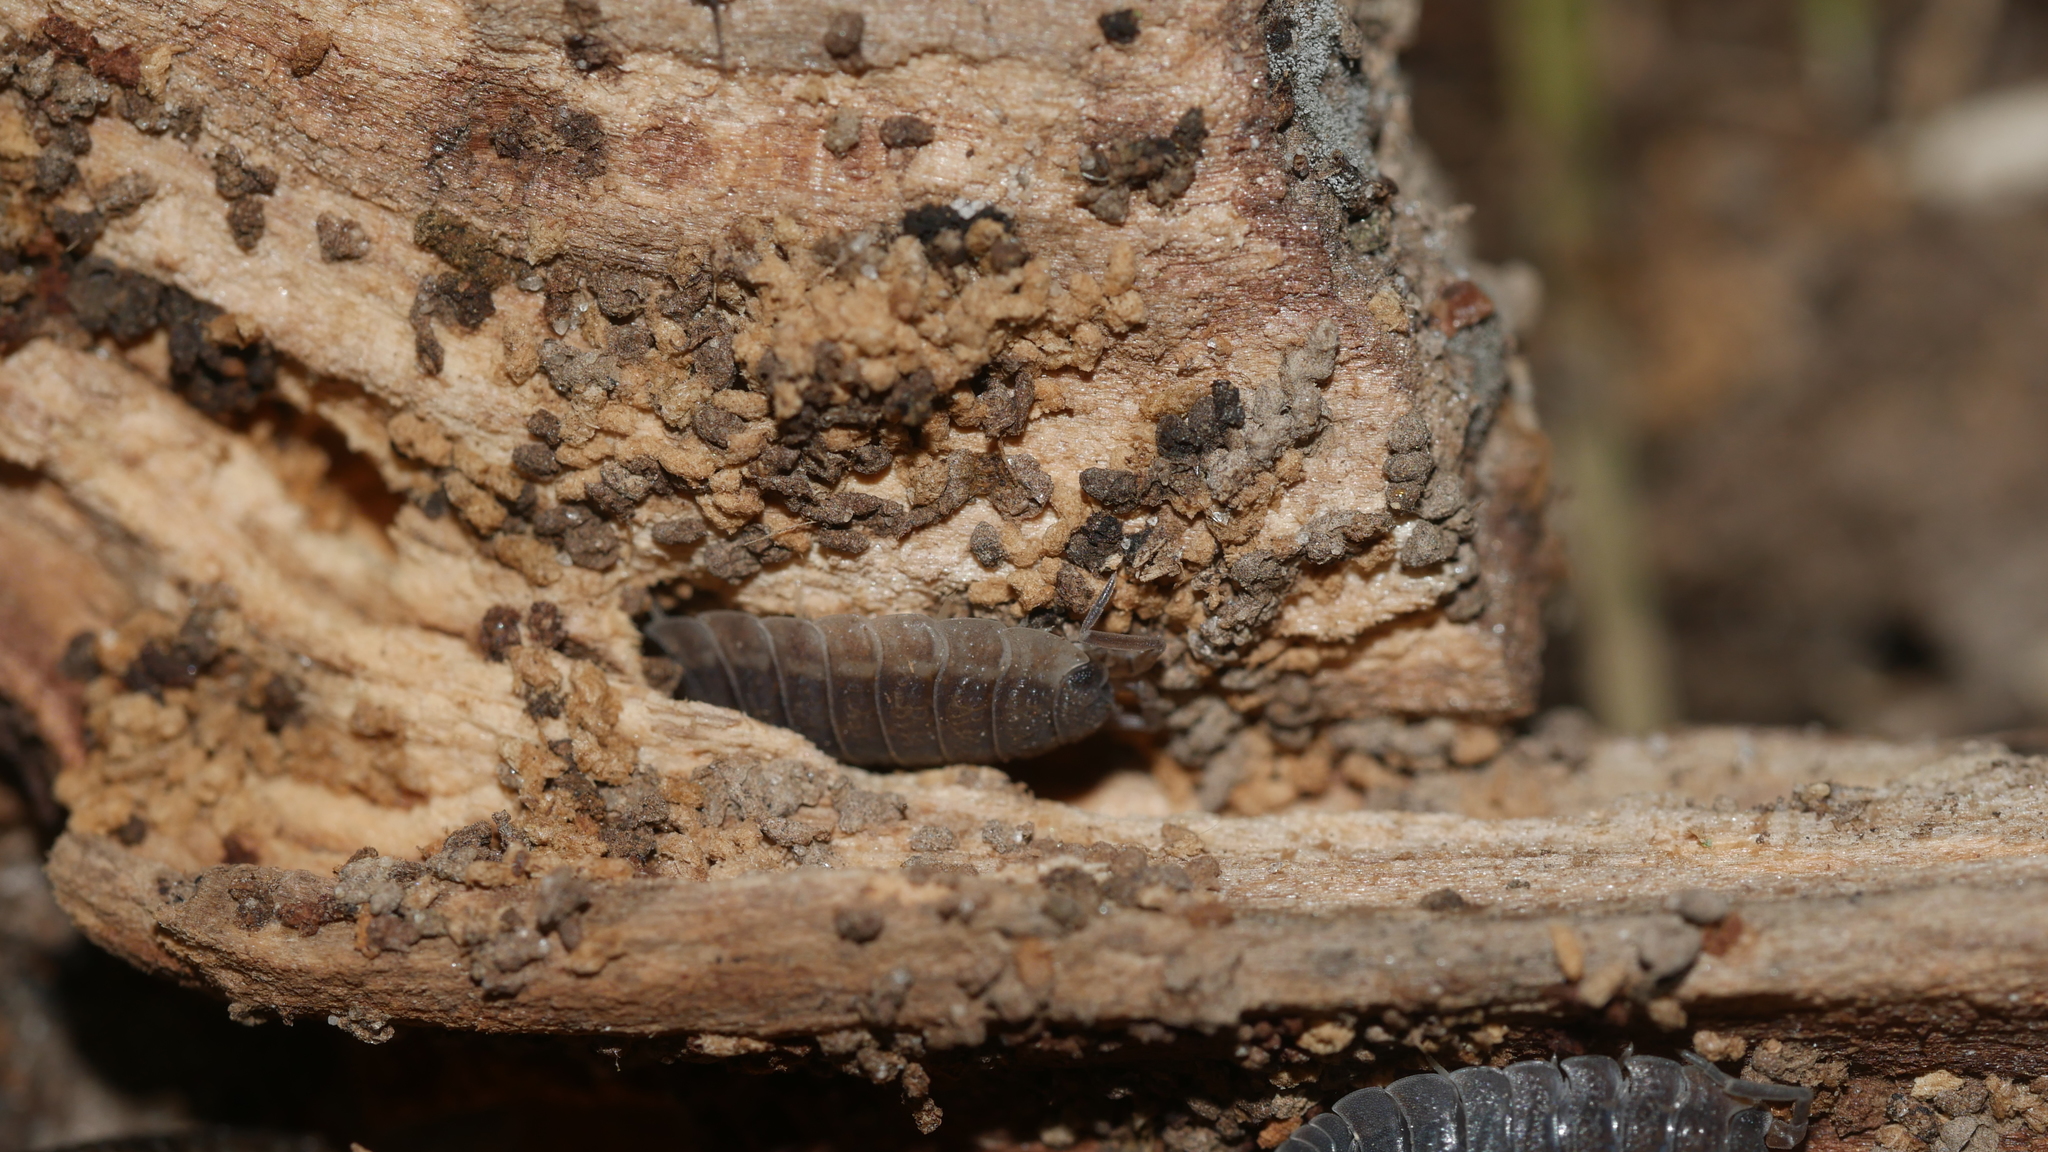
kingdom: Animalia
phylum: Arthropoda
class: Malacostraca
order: Isopoda
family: Porcellionidae
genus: Porcellio
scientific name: Porcellio scaber
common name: Common rough woodlouse
